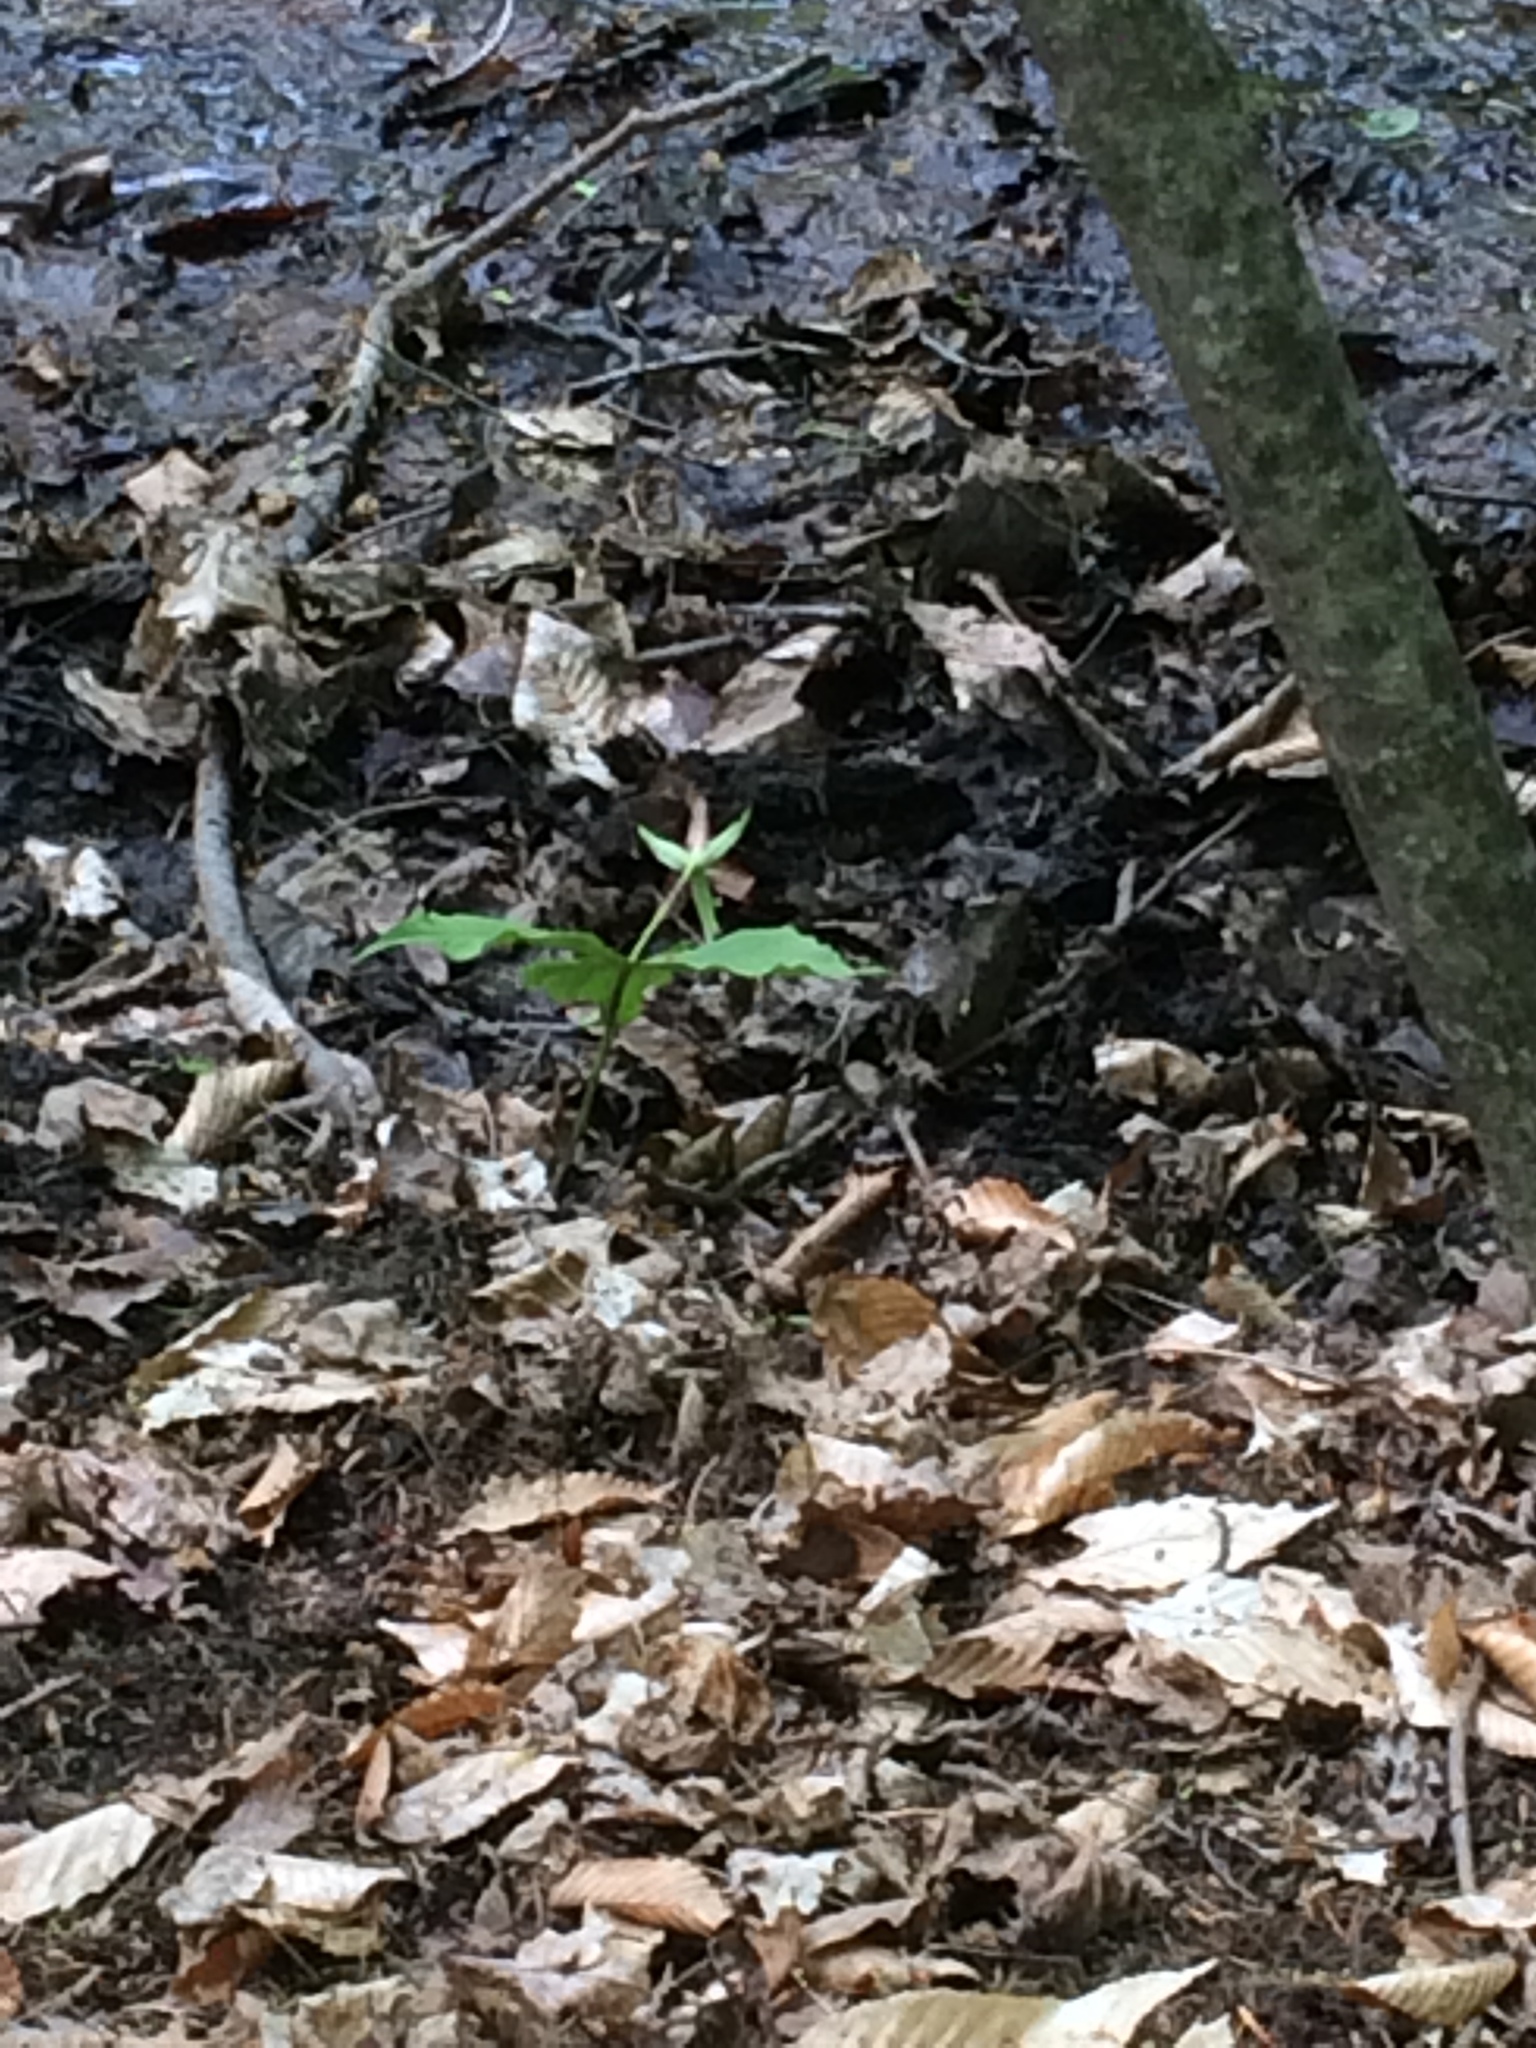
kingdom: Plantae
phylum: Tracheophyta
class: Liliopsida
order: Liliales
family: Melanthiaceae
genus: Trillium
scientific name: Trillium erectum
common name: Purple trillium
